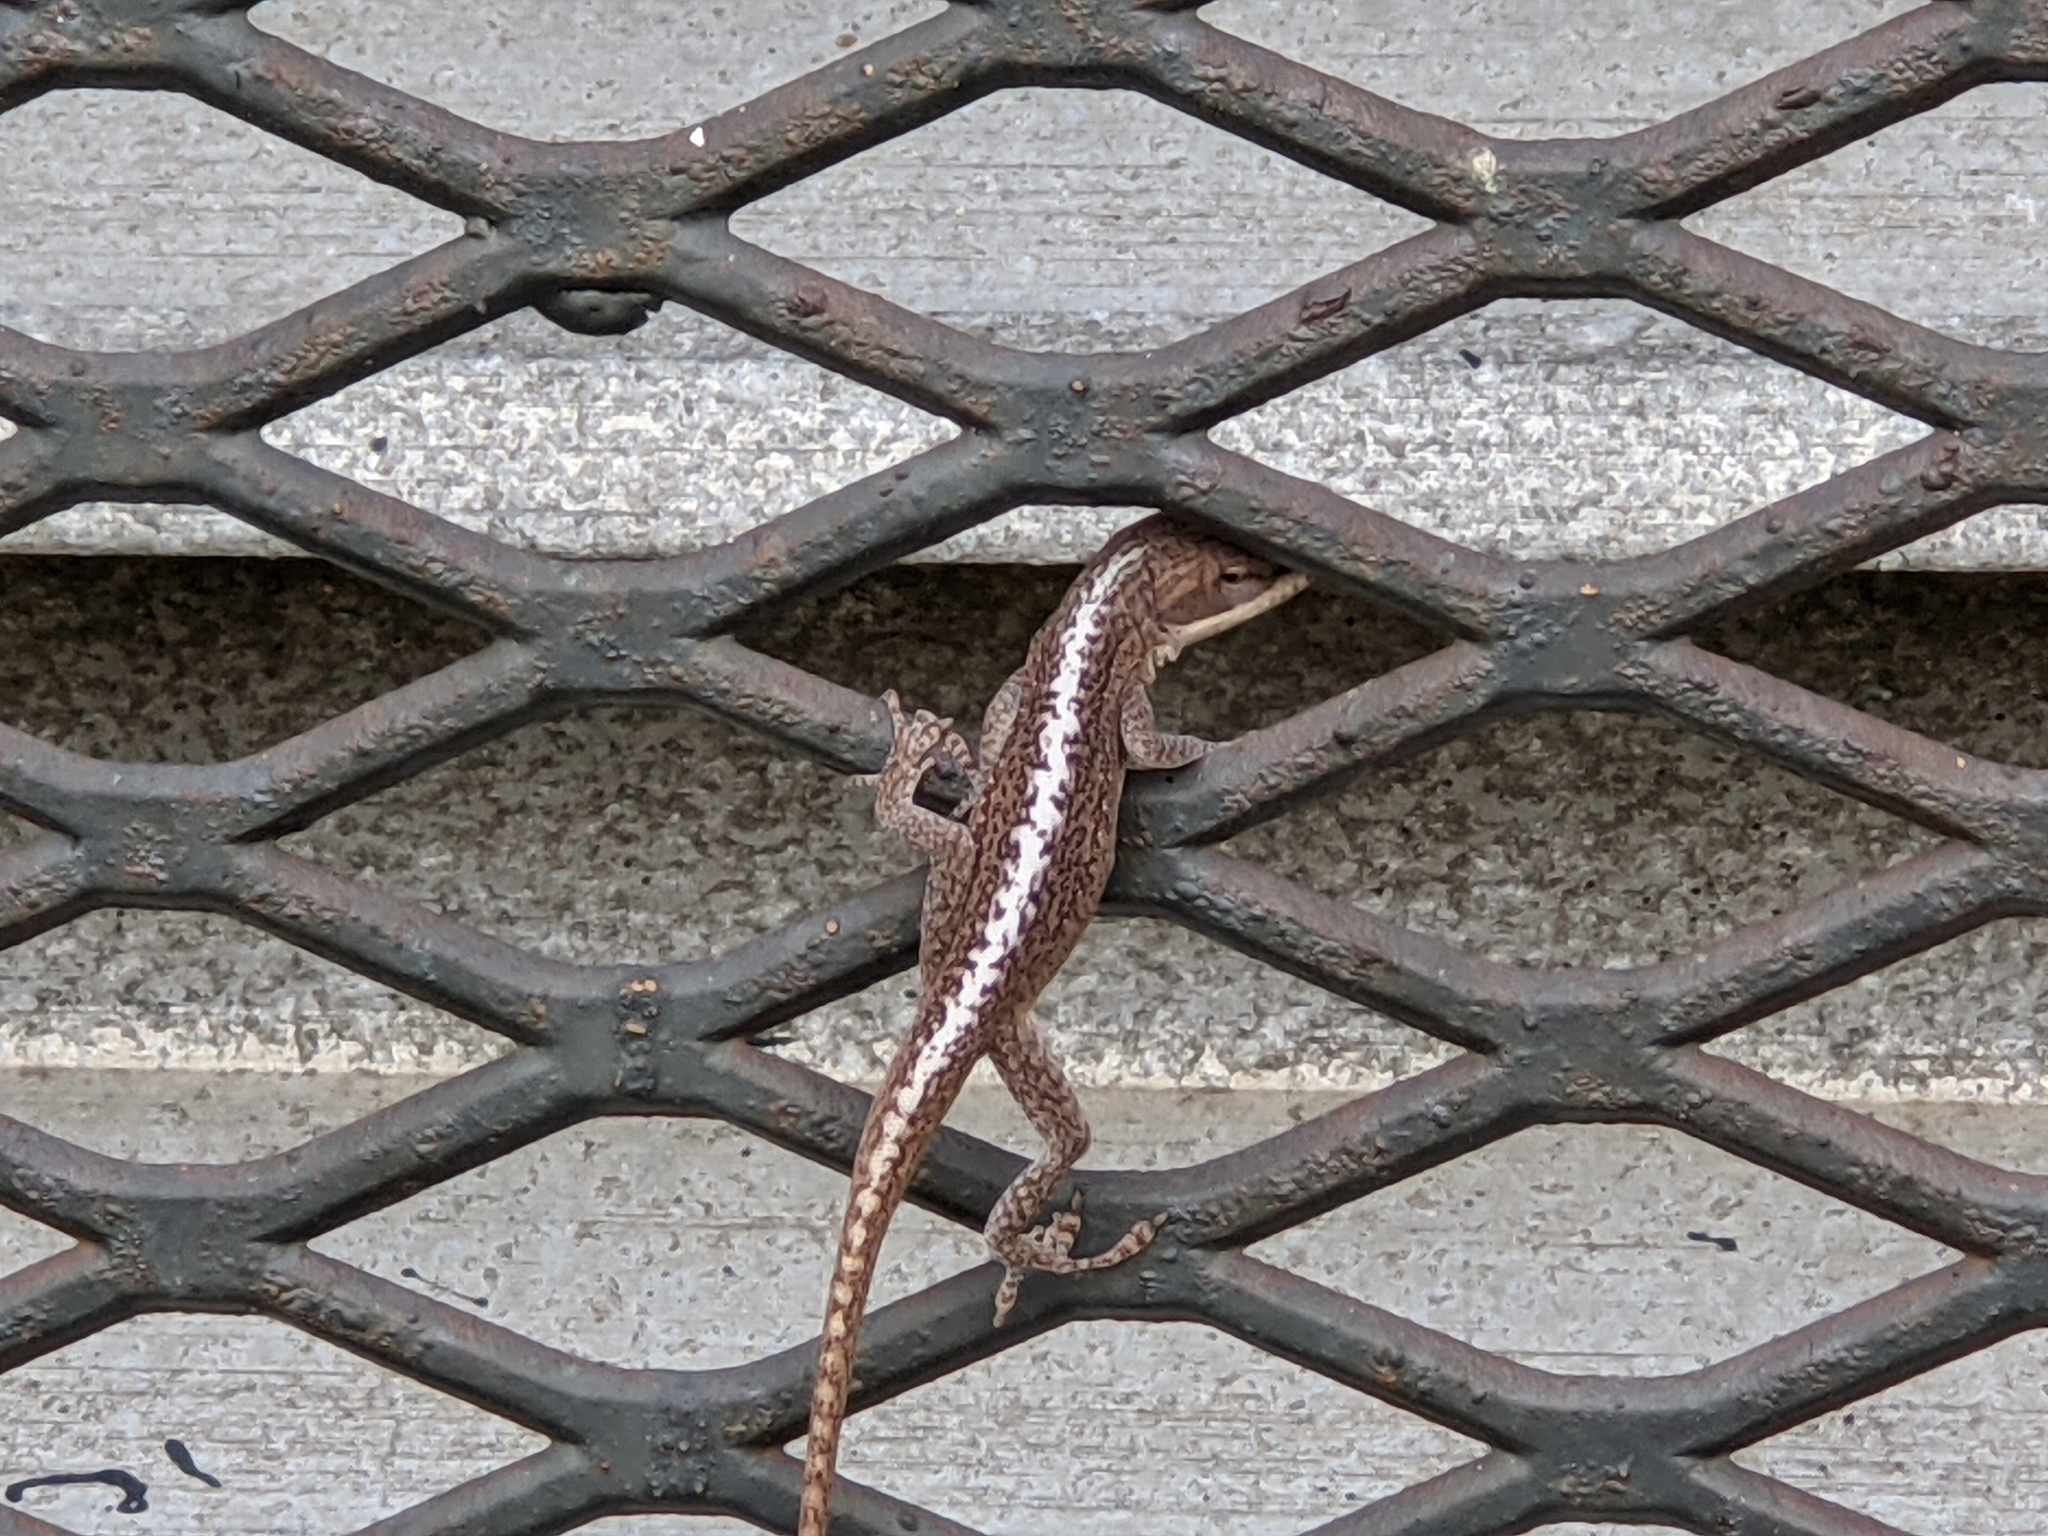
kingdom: Animalia
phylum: Chordata
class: Squamata
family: Dactyloidae
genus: Anolis
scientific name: Anolis carolinensis
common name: Green anole
